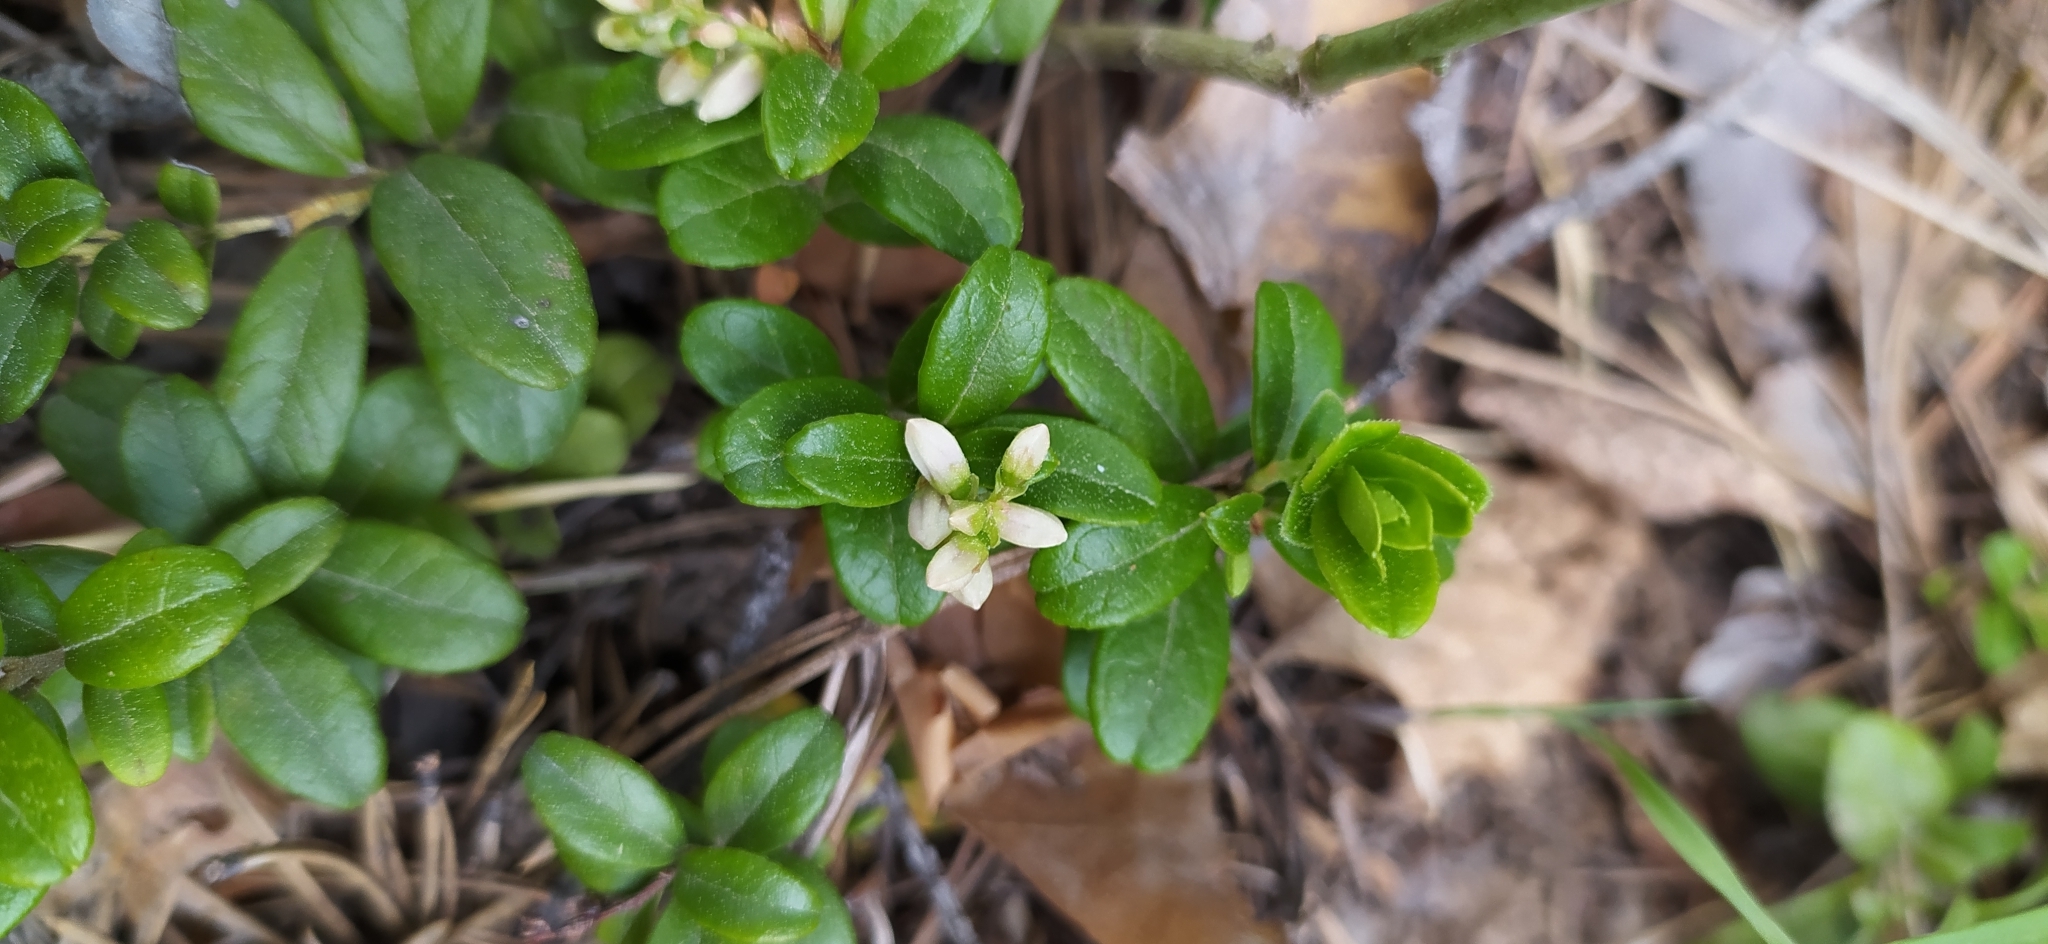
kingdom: Plantae
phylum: Tracheophyta
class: Magnoliopsida
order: Ericales
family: Ericaceae
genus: Vaccinium
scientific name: Vaccinium vitis-idaea
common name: Cowberry
